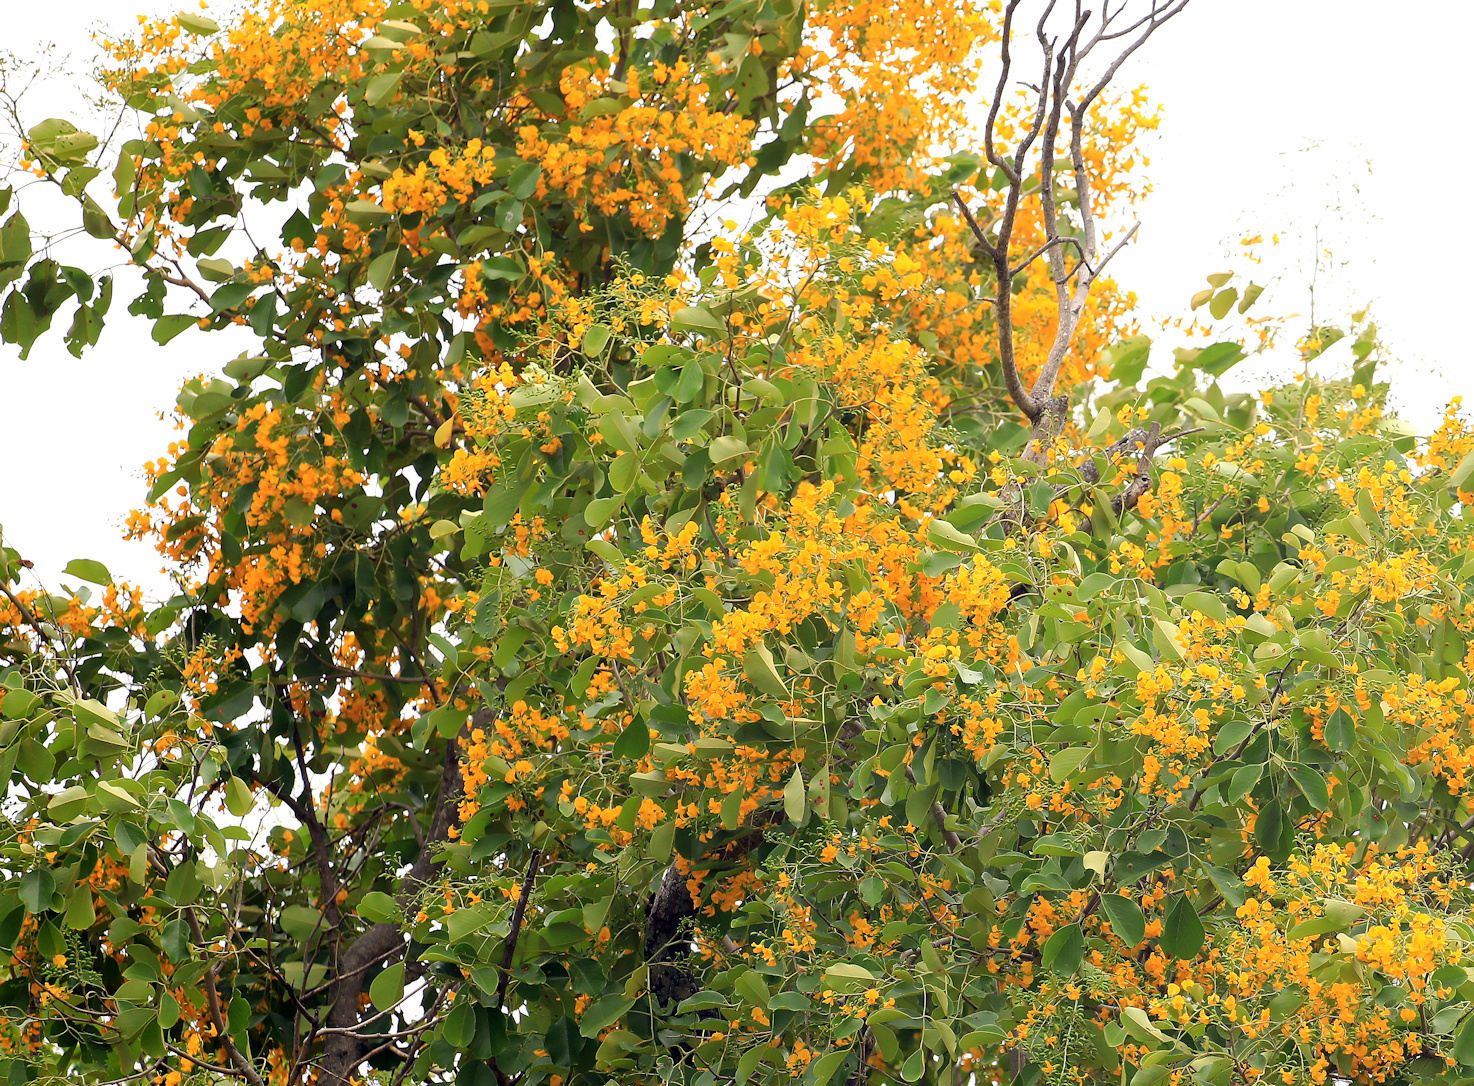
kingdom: Plantae
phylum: Tracheophyta
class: Magnoliopsida
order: Fabales
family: Fabaceae
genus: Pterocarpus
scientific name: Pterocarpus rotundifolius
